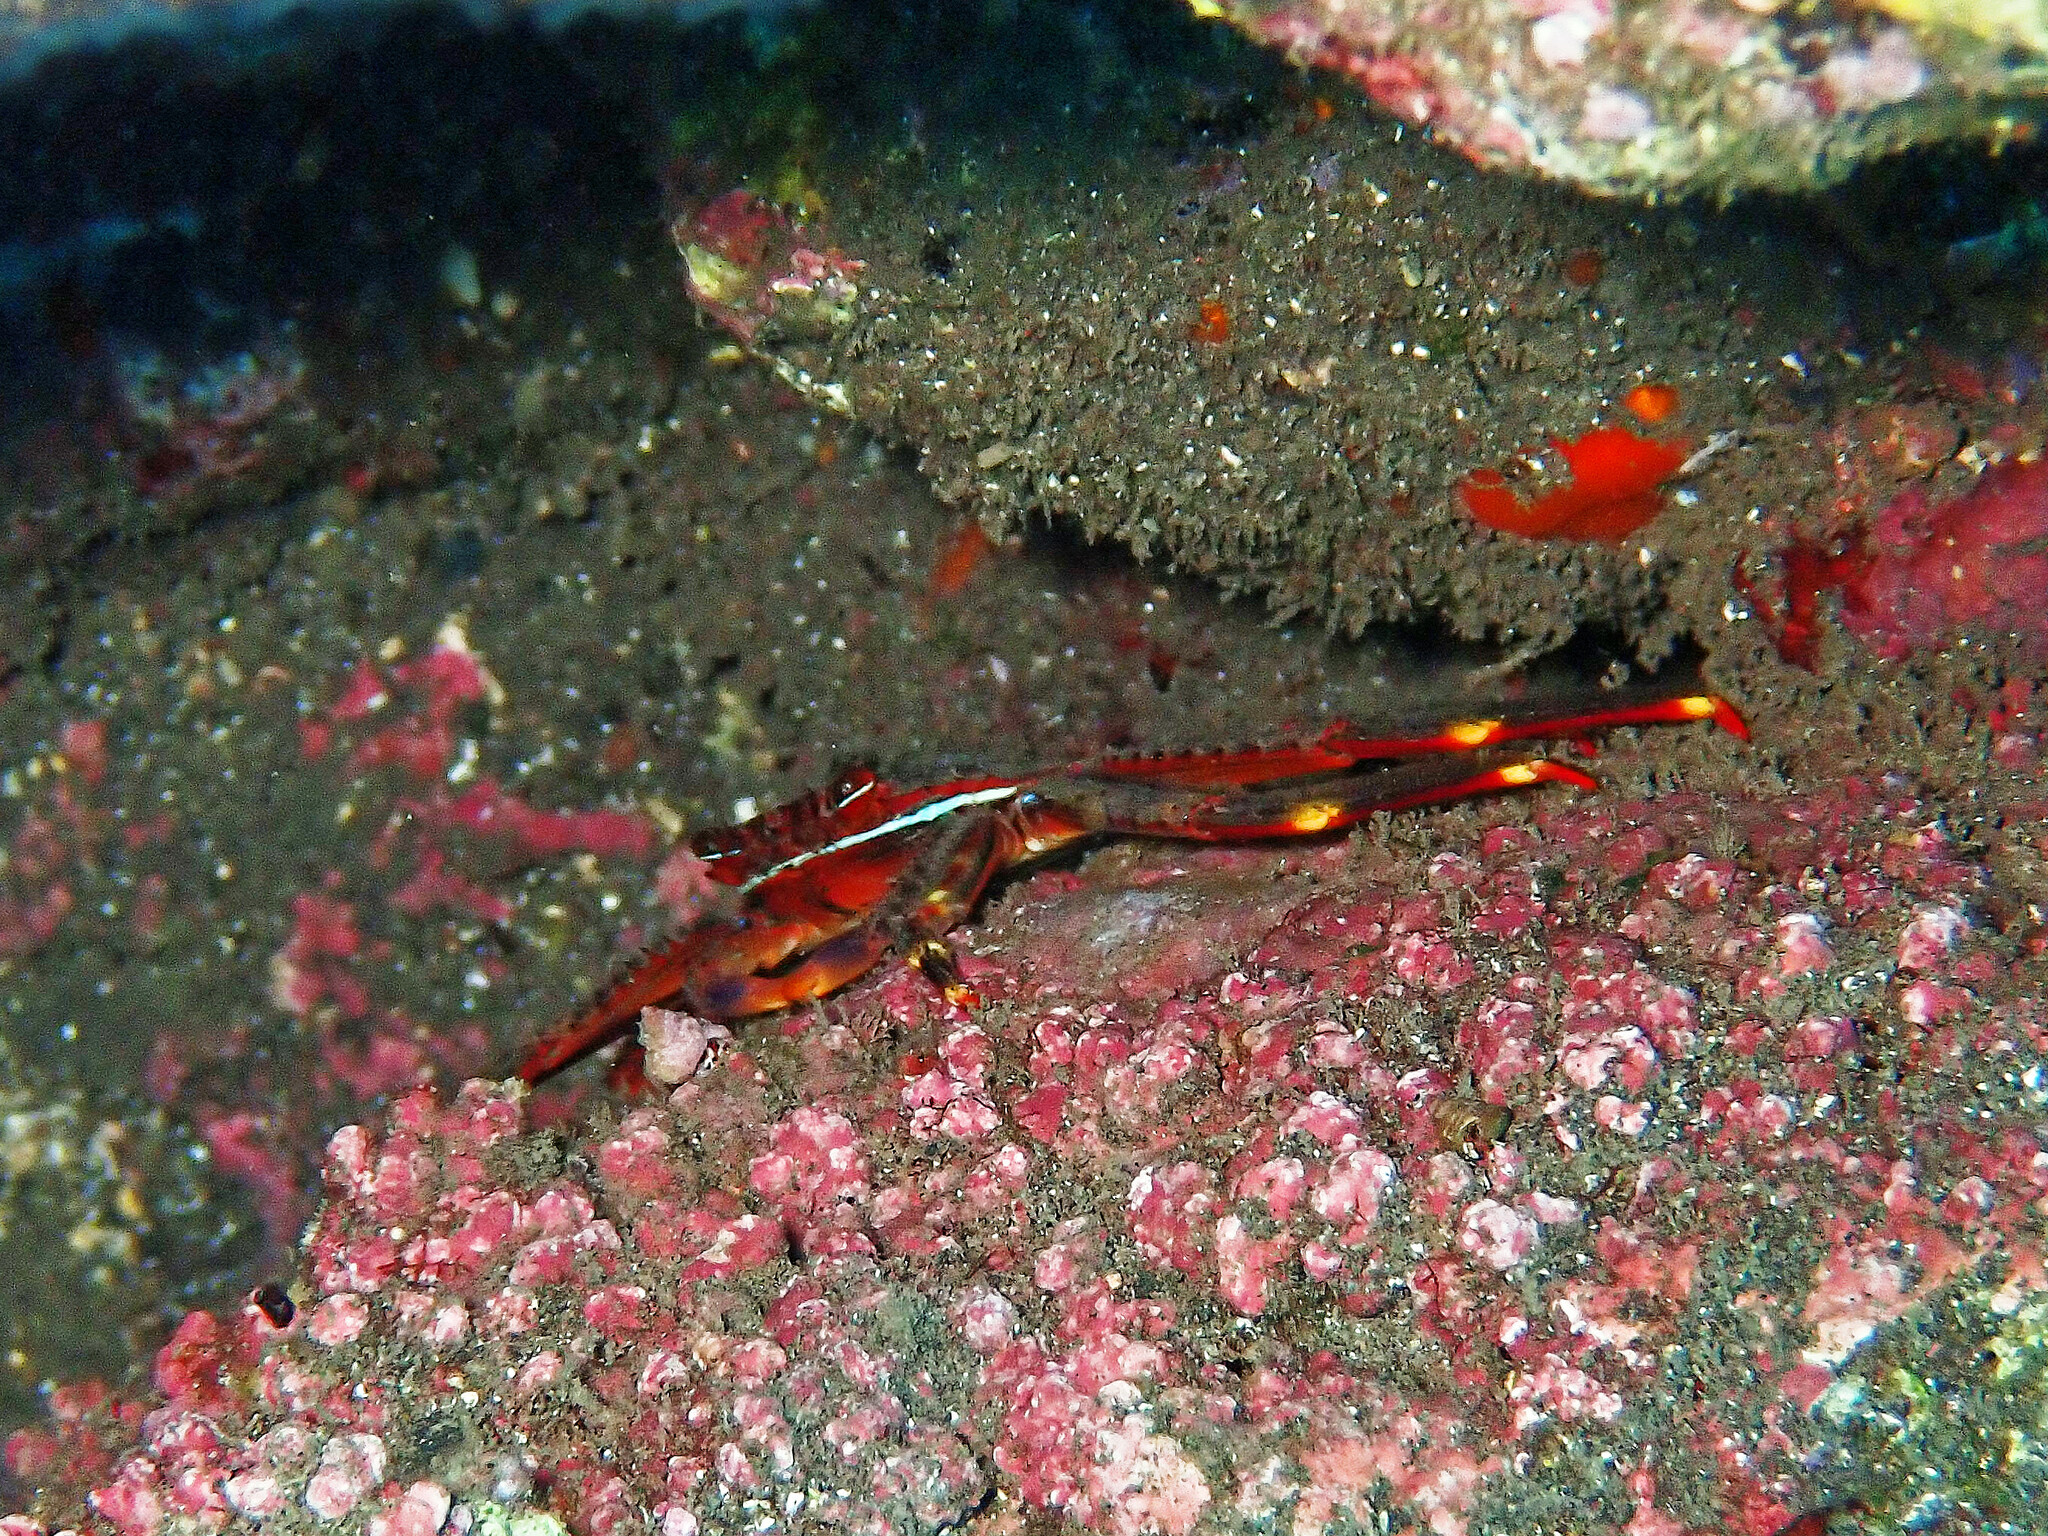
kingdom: Animalia
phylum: Arthropoda
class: Malacostraca
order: Decapoda
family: Percnidae
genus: Percnon
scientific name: Percnon gibbesi
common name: Nimble spray crab
